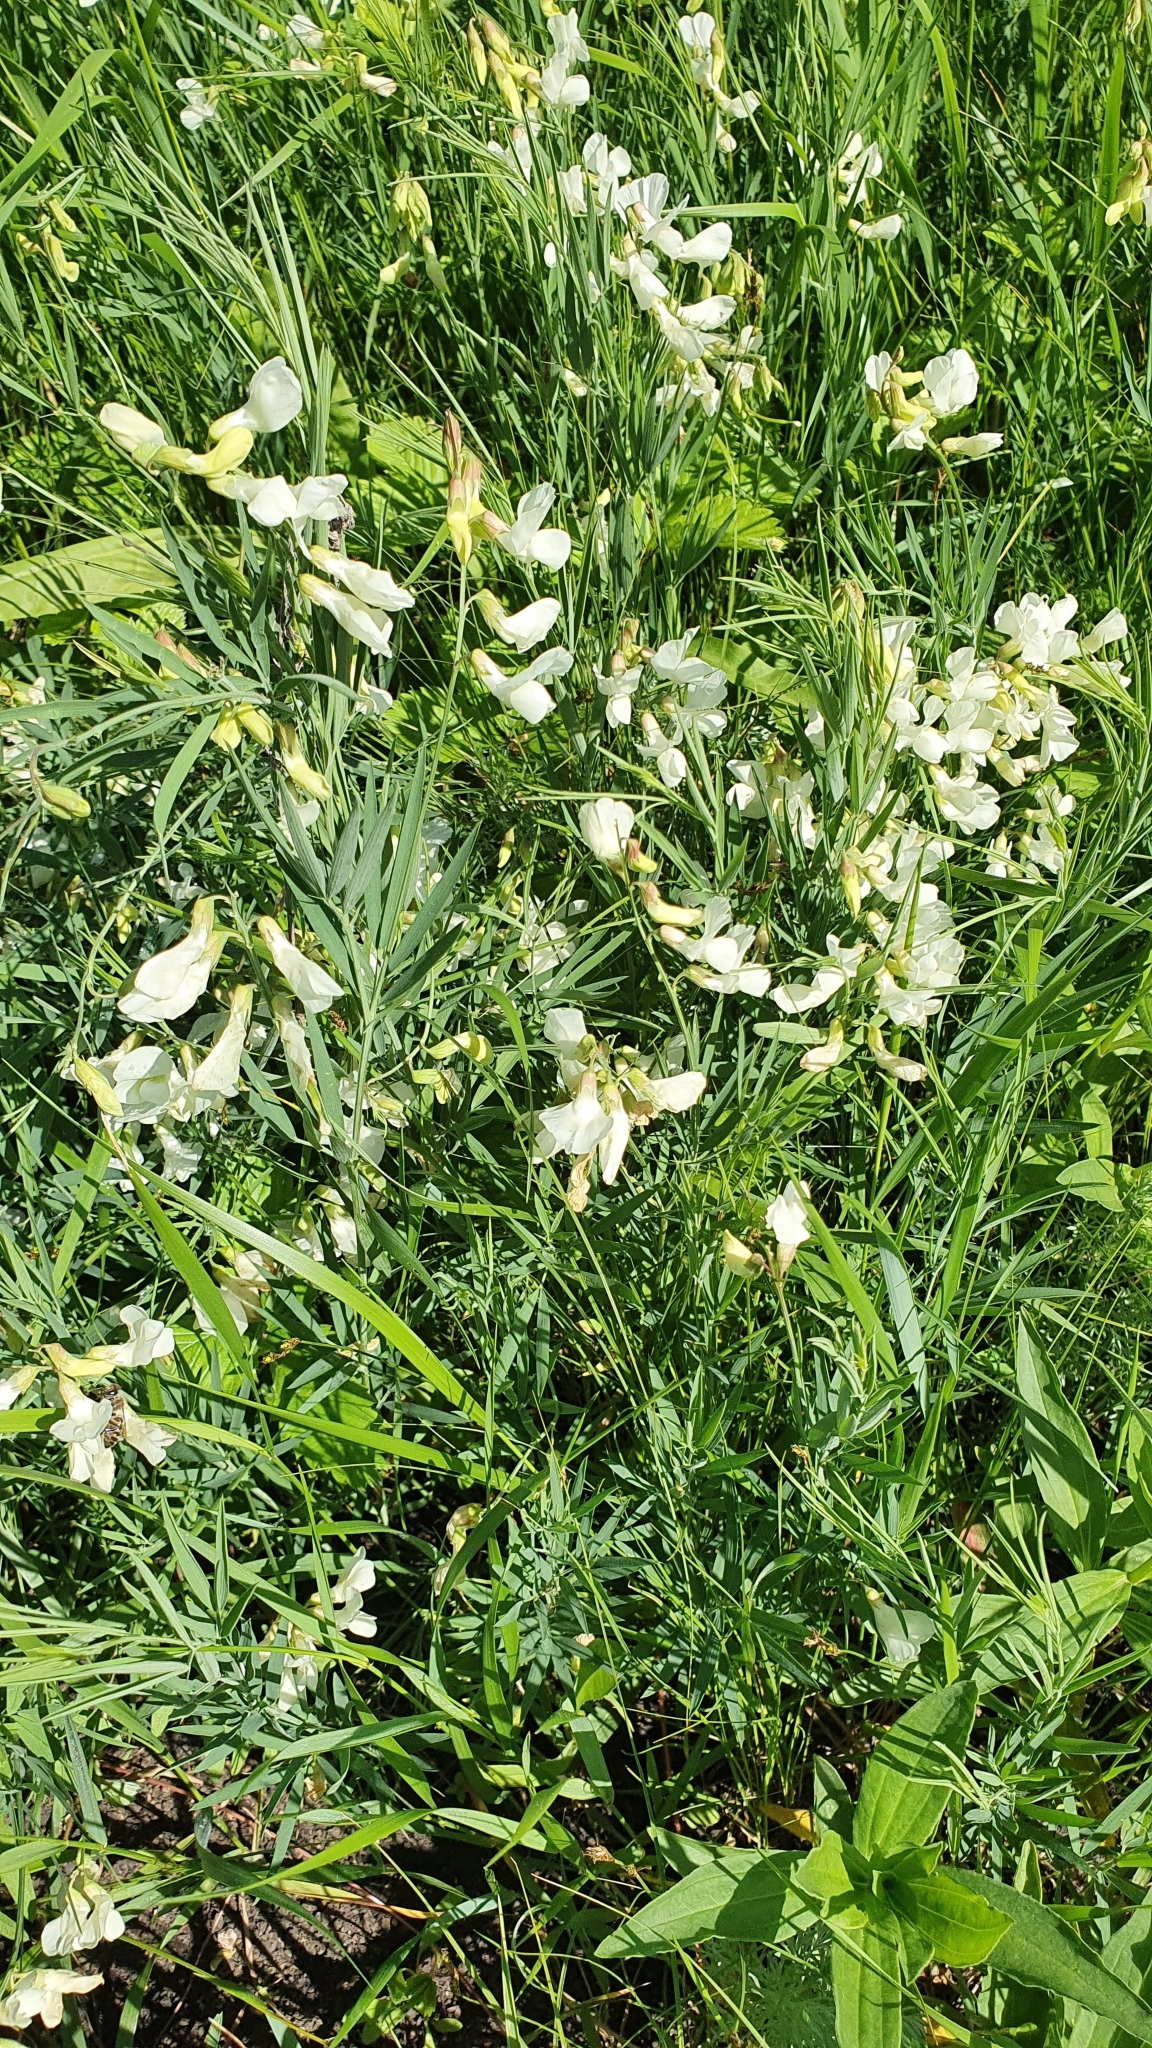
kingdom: Plantae
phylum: Tracheophyta
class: Magnoliopsida
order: Fabales
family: Fabaceae
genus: Lathyrus
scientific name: Lathyrus pallescens
